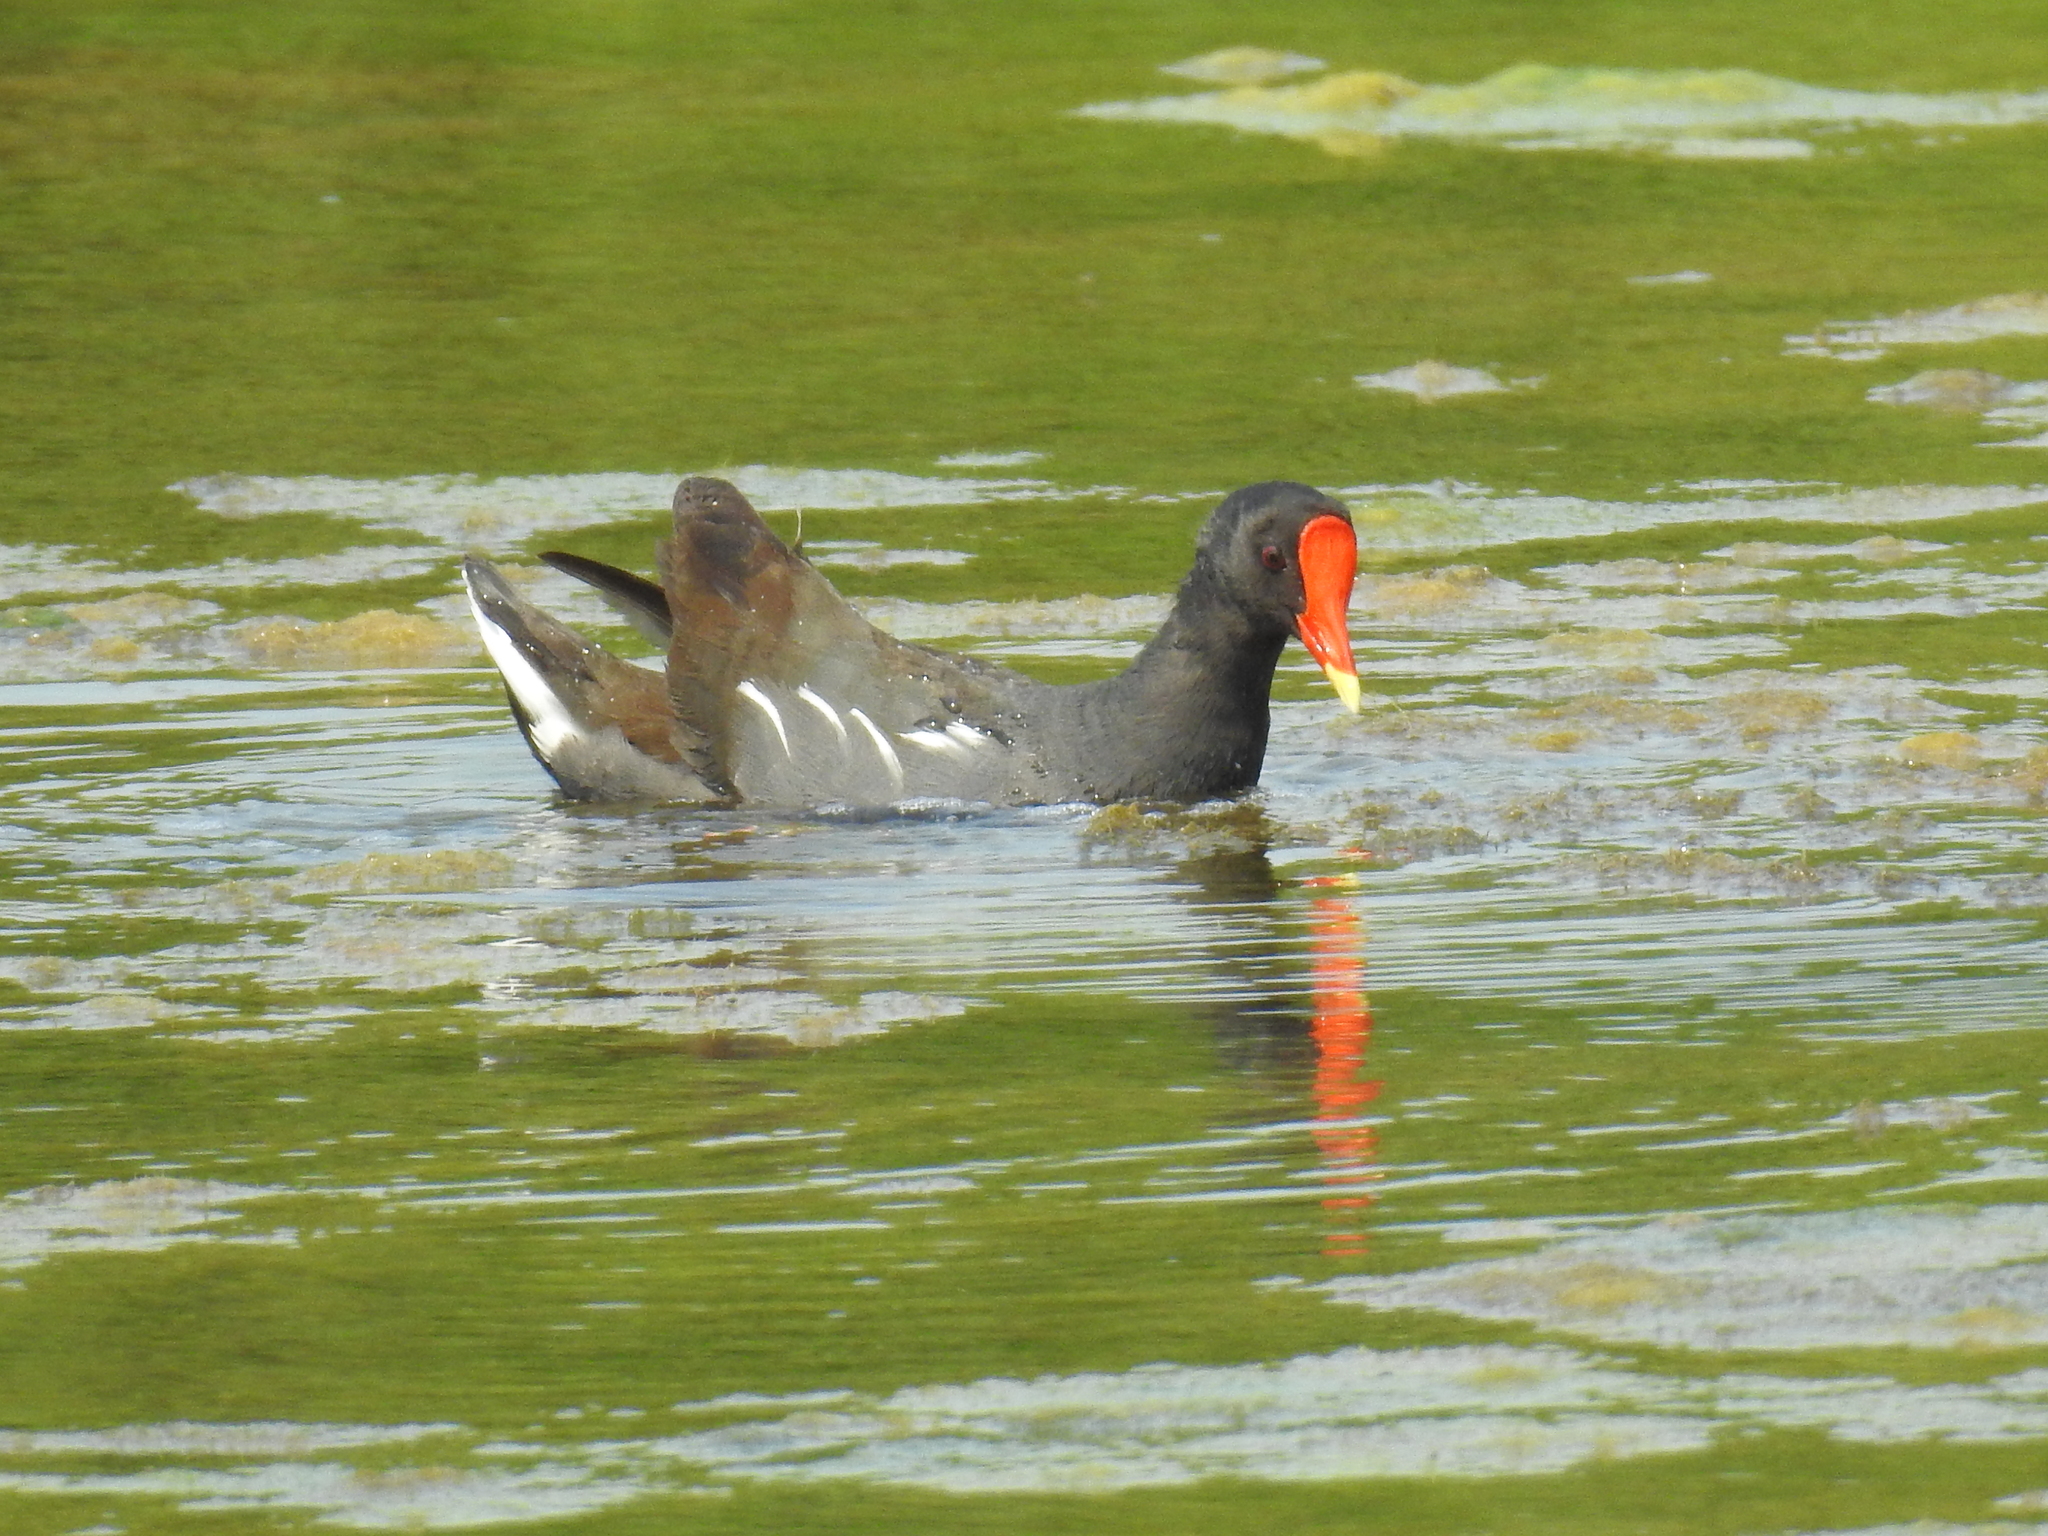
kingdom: Animalia
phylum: Chordata
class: Aves
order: Gruiformes
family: Rallidae
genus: Gallinula
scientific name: Gallinula chloropus
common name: Common moorhen
